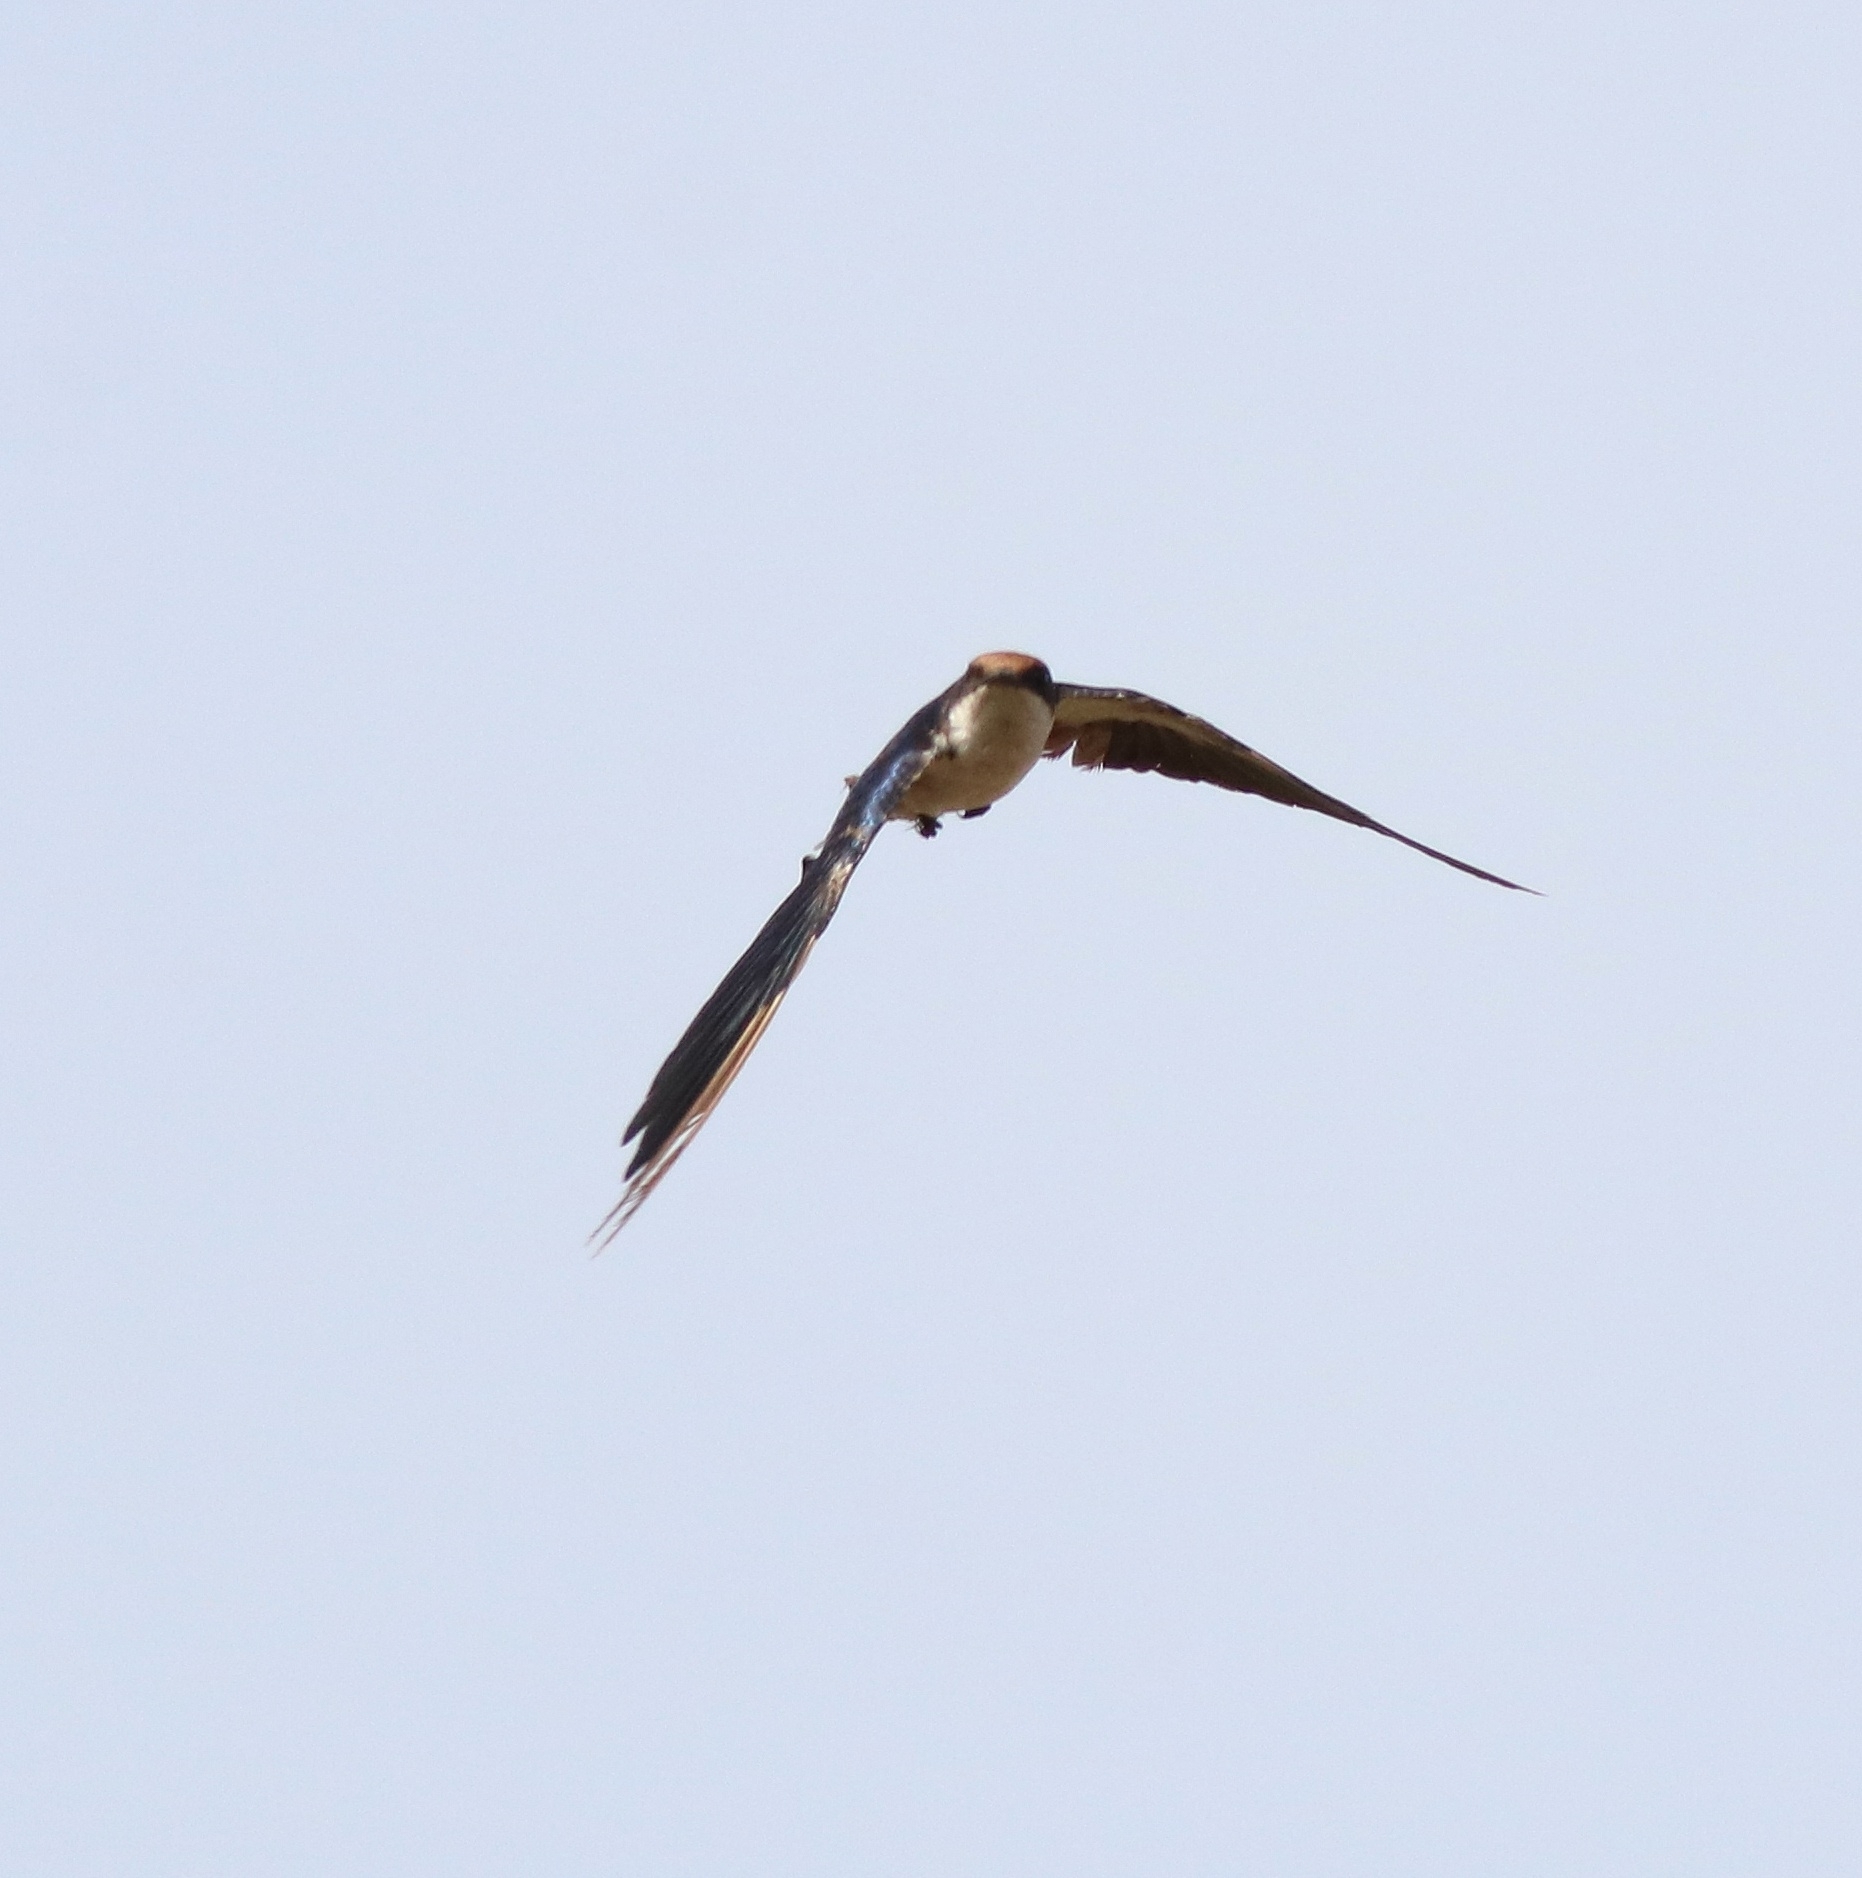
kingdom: Animalia
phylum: Chordata
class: Aves
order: Passeriformes
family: Hirundinidae
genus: Hirundo
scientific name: Hirundo smithii
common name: Wire-tailed swallow
